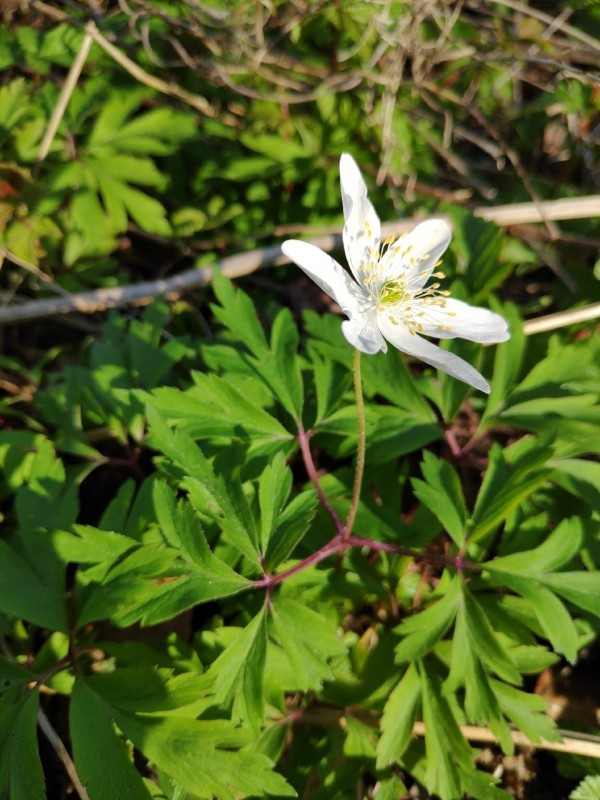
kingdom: Plantae
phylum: Tracheophyta
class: Magnoliopsida
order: Ranunculales
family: Ranunculaceae
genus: Anemone
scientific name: Anemone nemorosa
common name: Wood anemone
